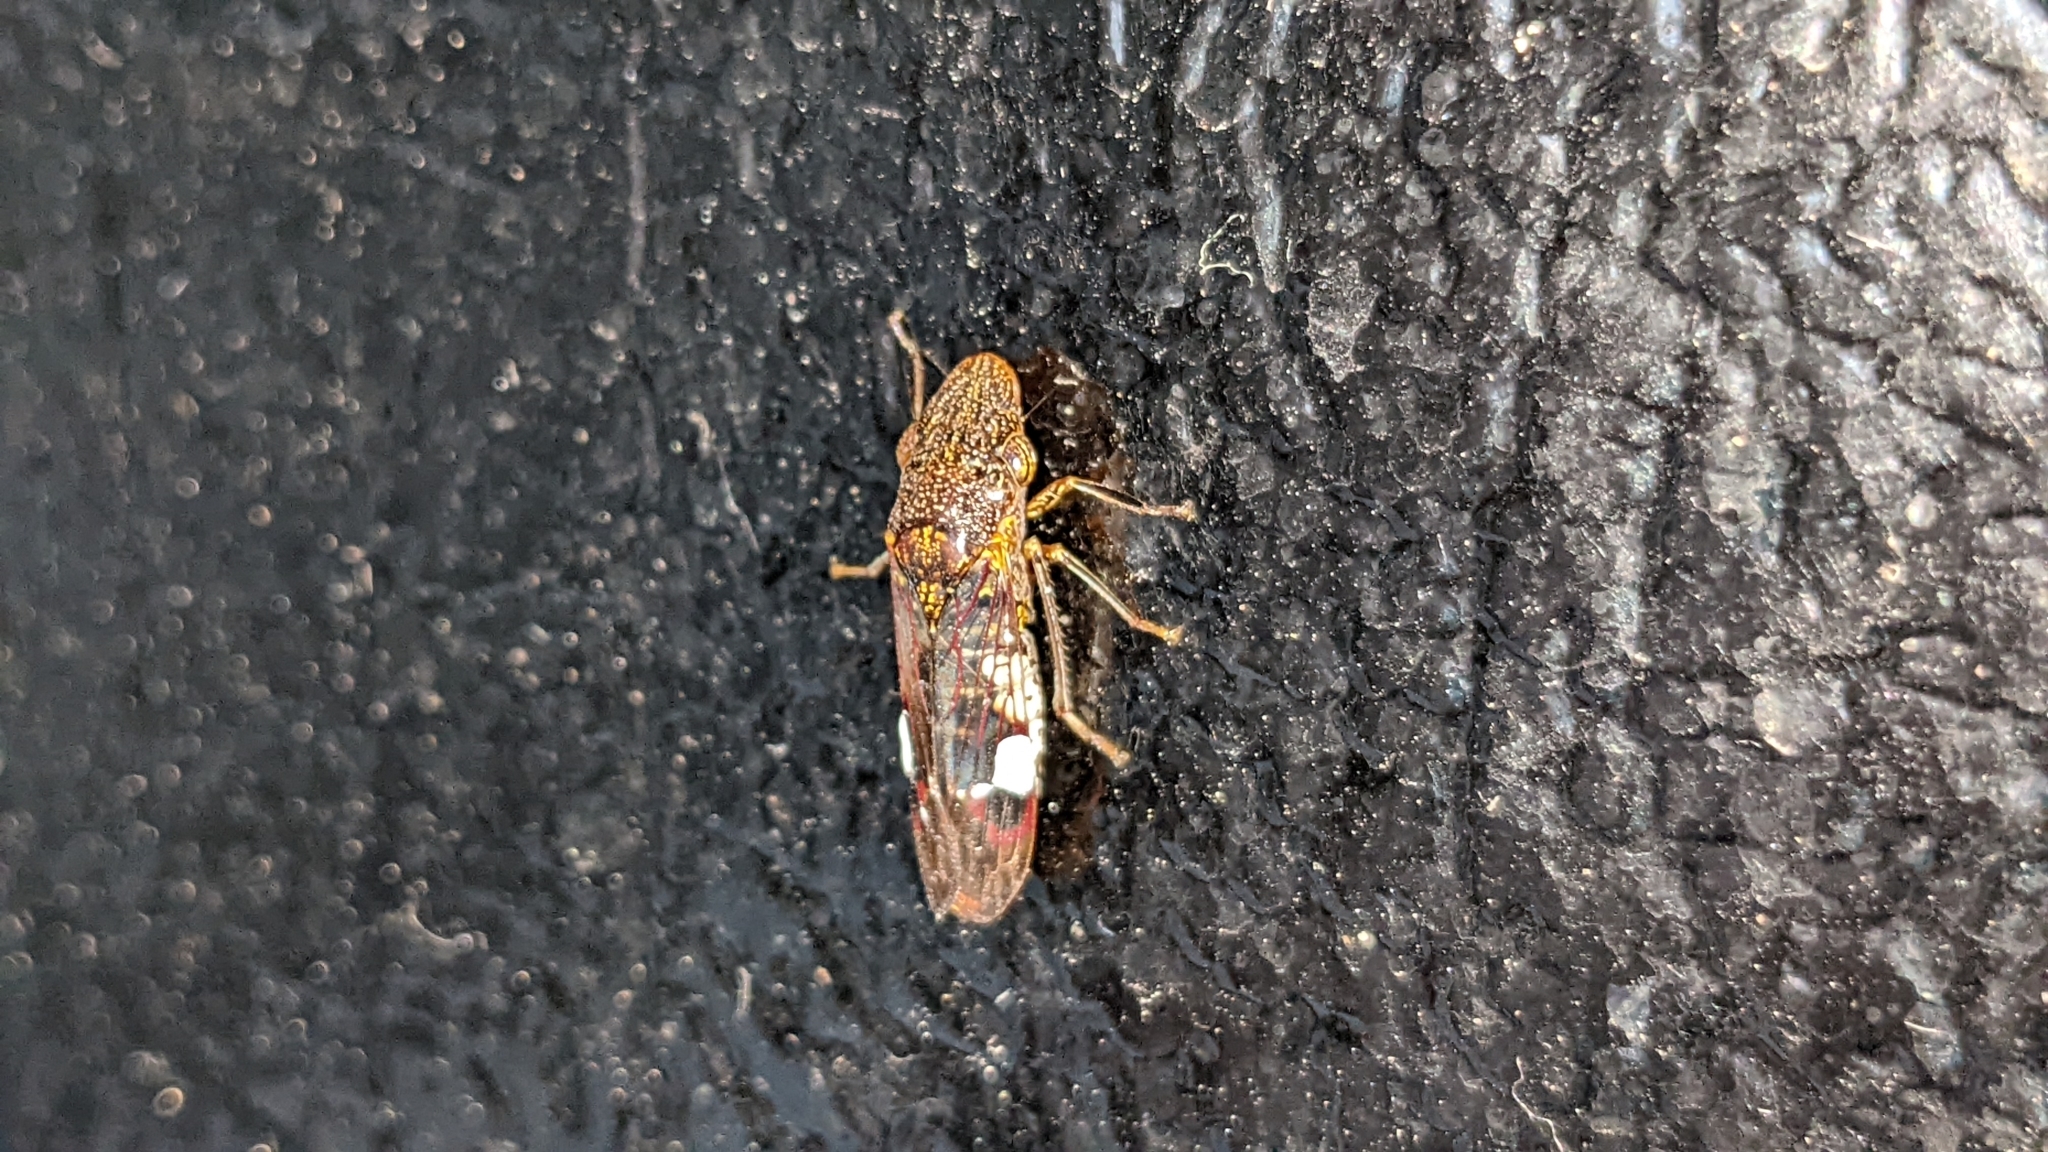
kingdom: Animalia
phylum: Arthropoda
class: Insecta
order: Hemiptera
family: Cicadellidae
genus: Homalodisca
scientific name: Homalodisca vitripennis
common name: Glassy-winged sharpshooter
